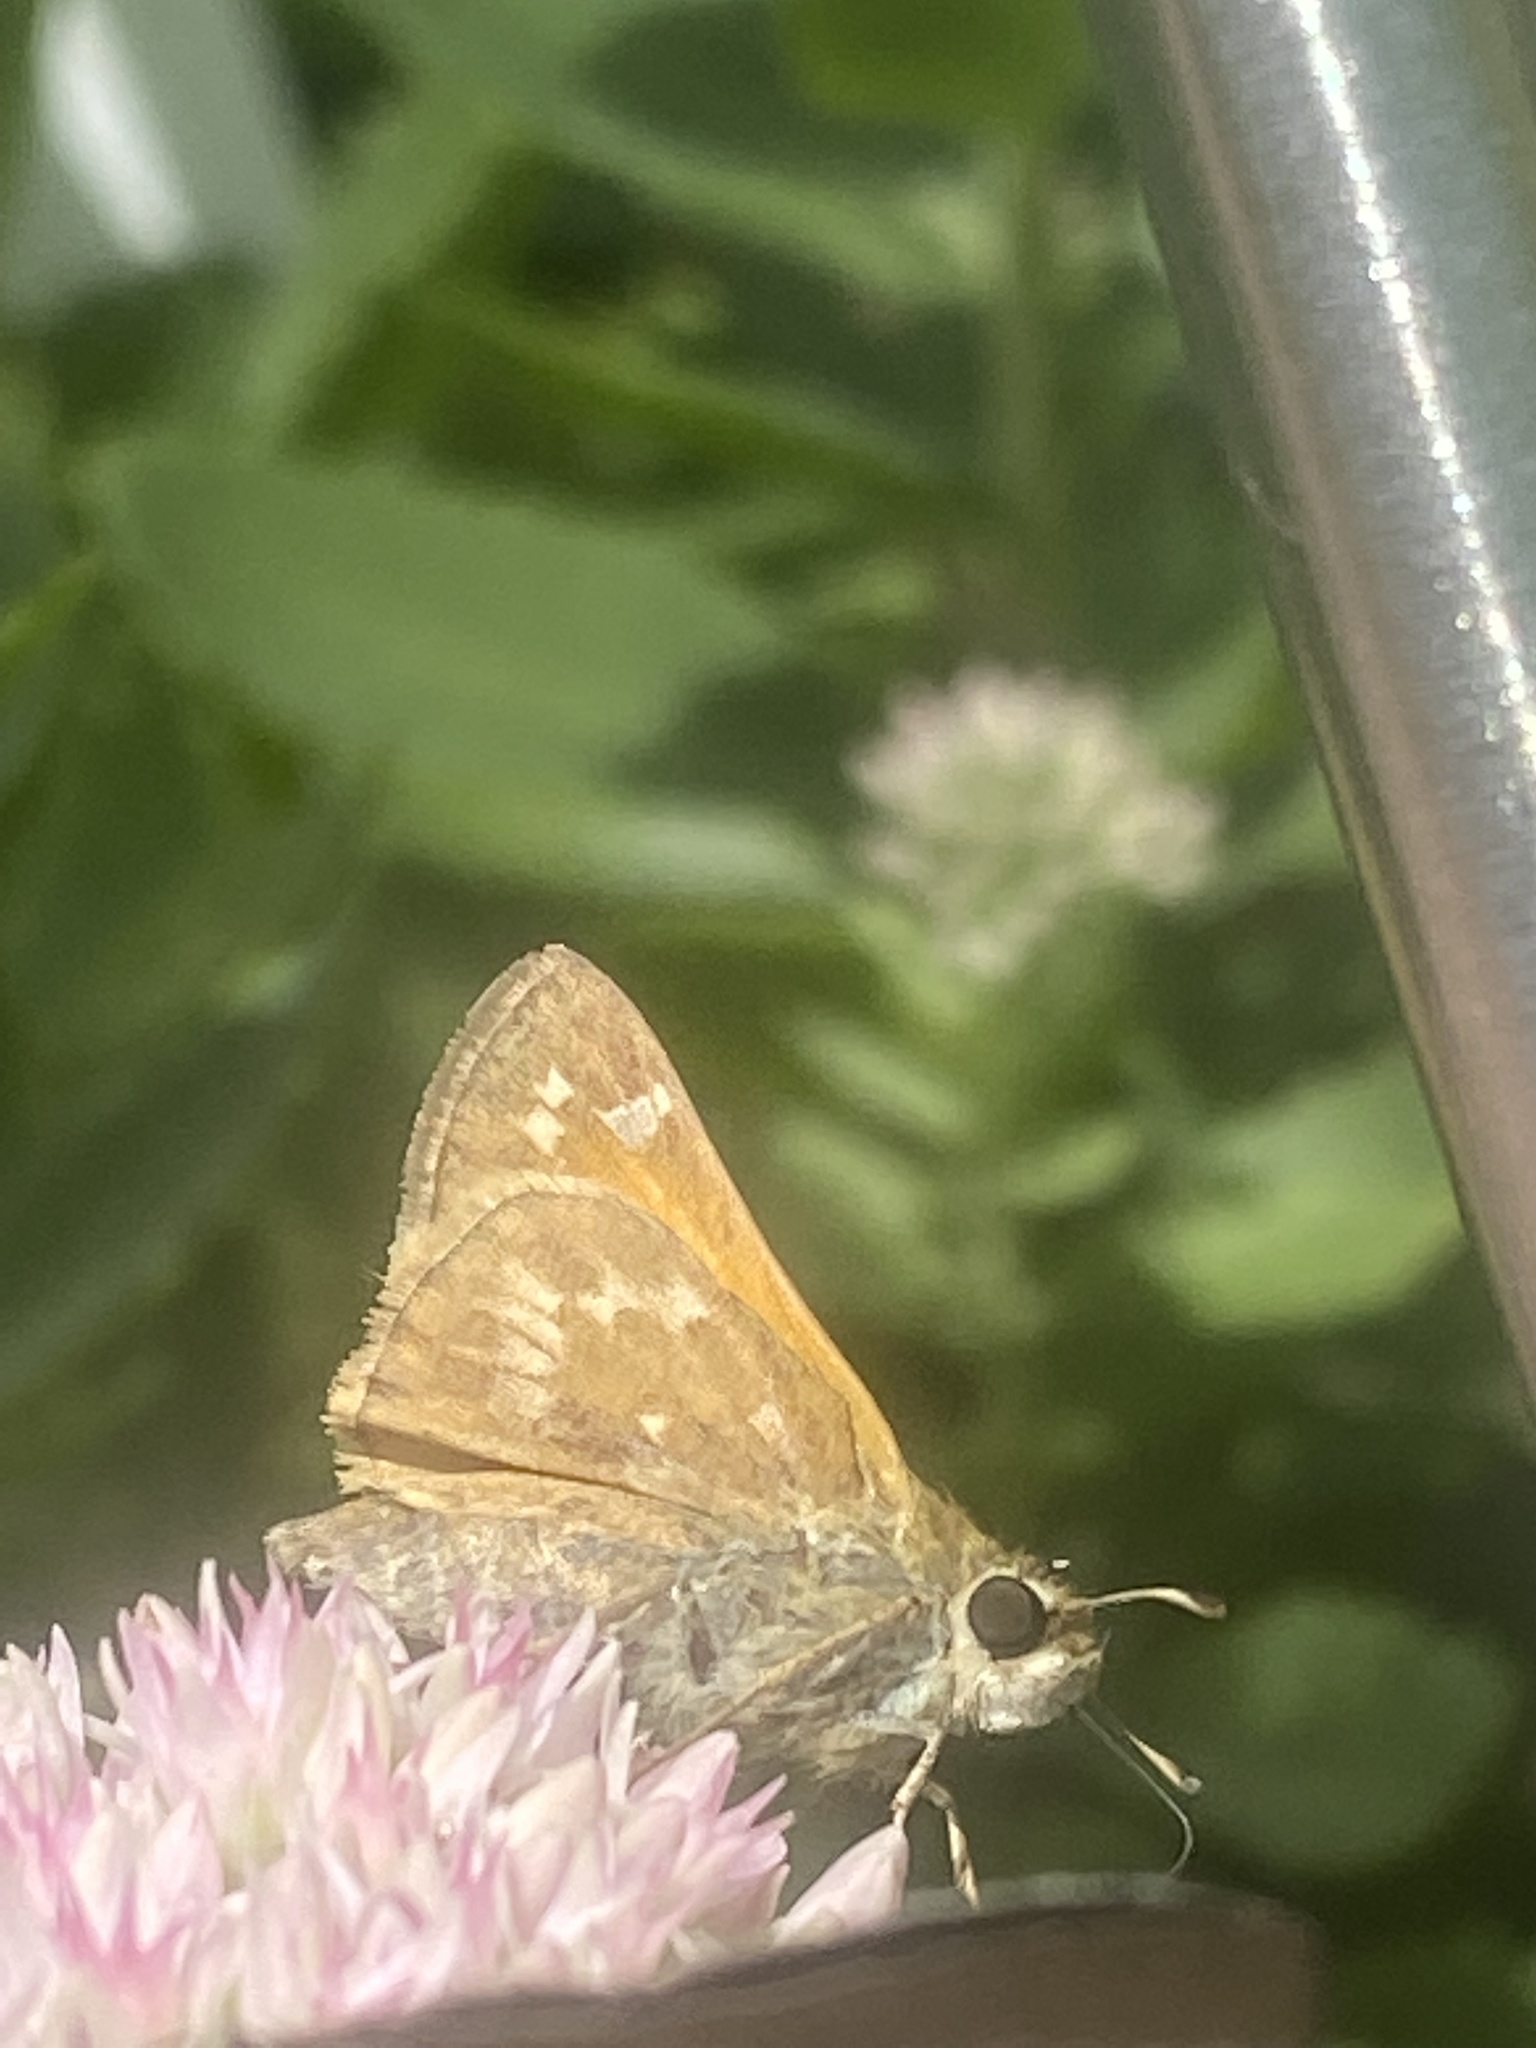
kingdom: Animalia
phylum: Arthropoda
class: Insecta
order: Lepidoptera
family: Hesperiidae
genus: Atalopedes
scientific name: Atalopedes
